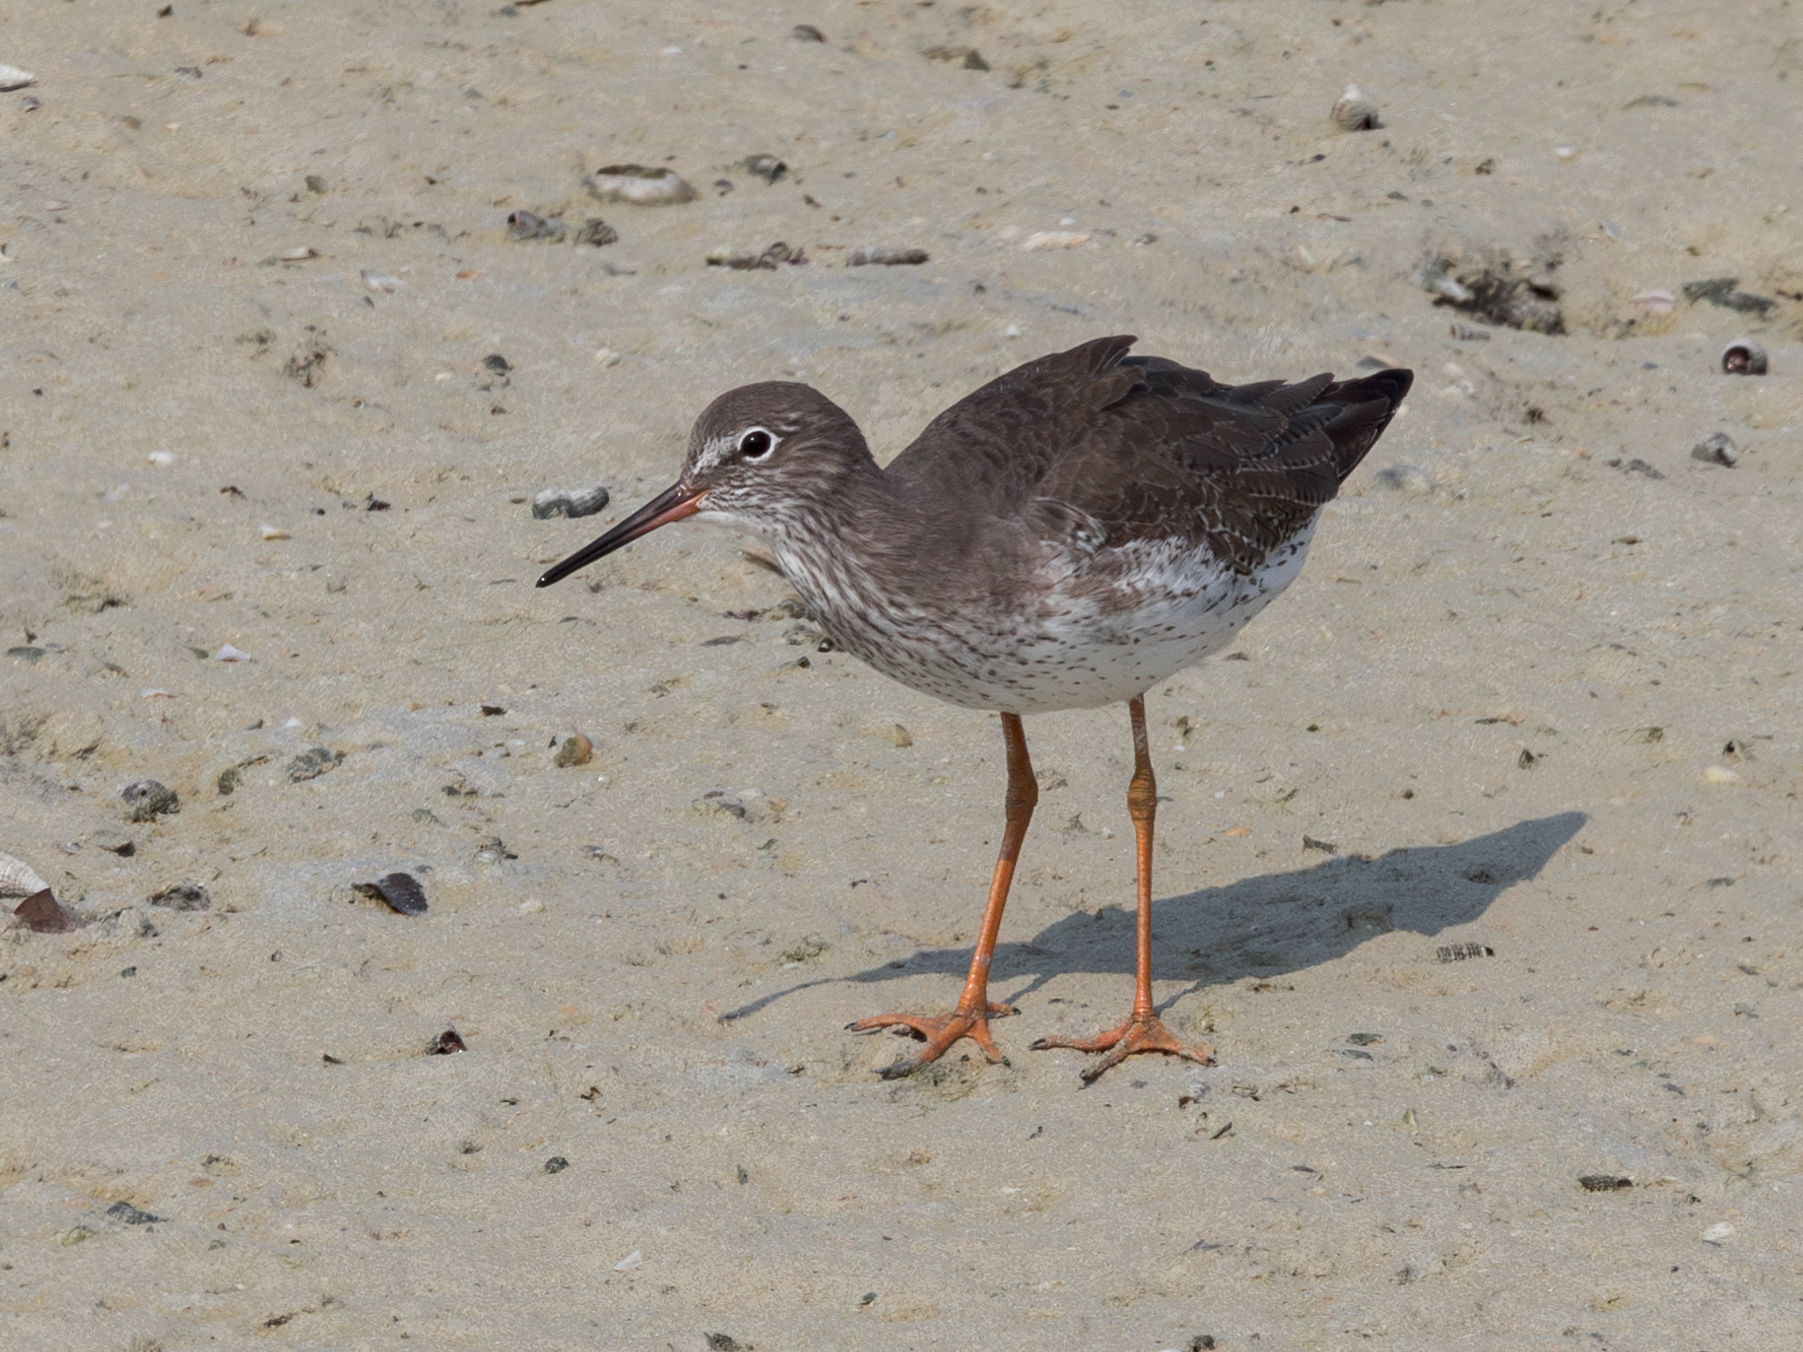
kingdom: Animalia
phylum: Chordata
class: Aves
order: Charadriiformes
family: Scolopacidae
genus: Tringa
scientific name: Tringa totanus
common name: Common redshank
